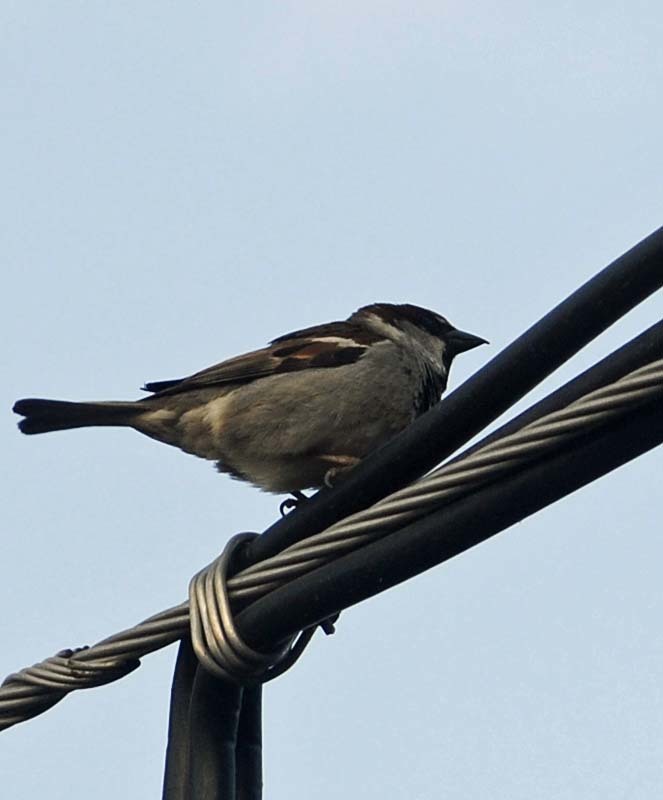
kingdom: Animalia
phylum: Chordata
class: Aves
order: Passeriformes
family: Passeridae
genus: Passer
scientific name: Passer domesticus
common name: House sparrow
